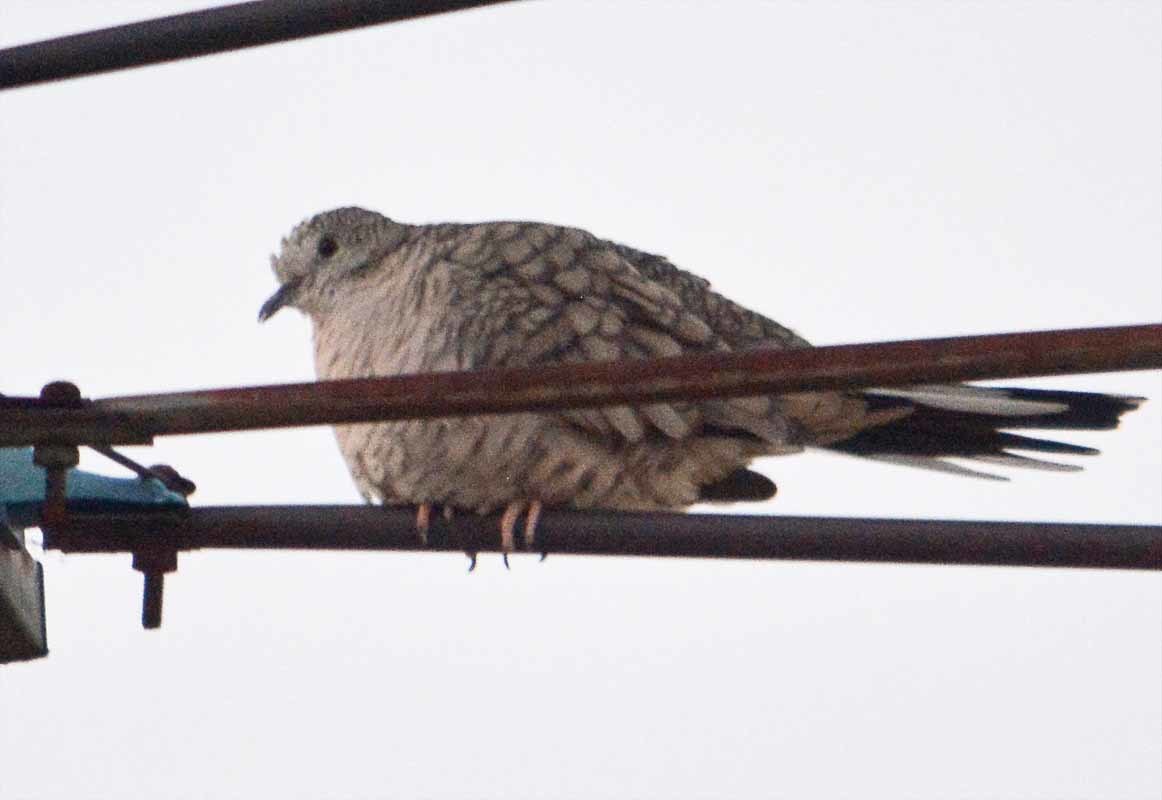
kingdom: Animalia
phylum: Chordata
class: Aves
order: Columbiformes
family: Columbidae
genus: Columbina
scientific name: Columbina inca
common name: Inca dove
